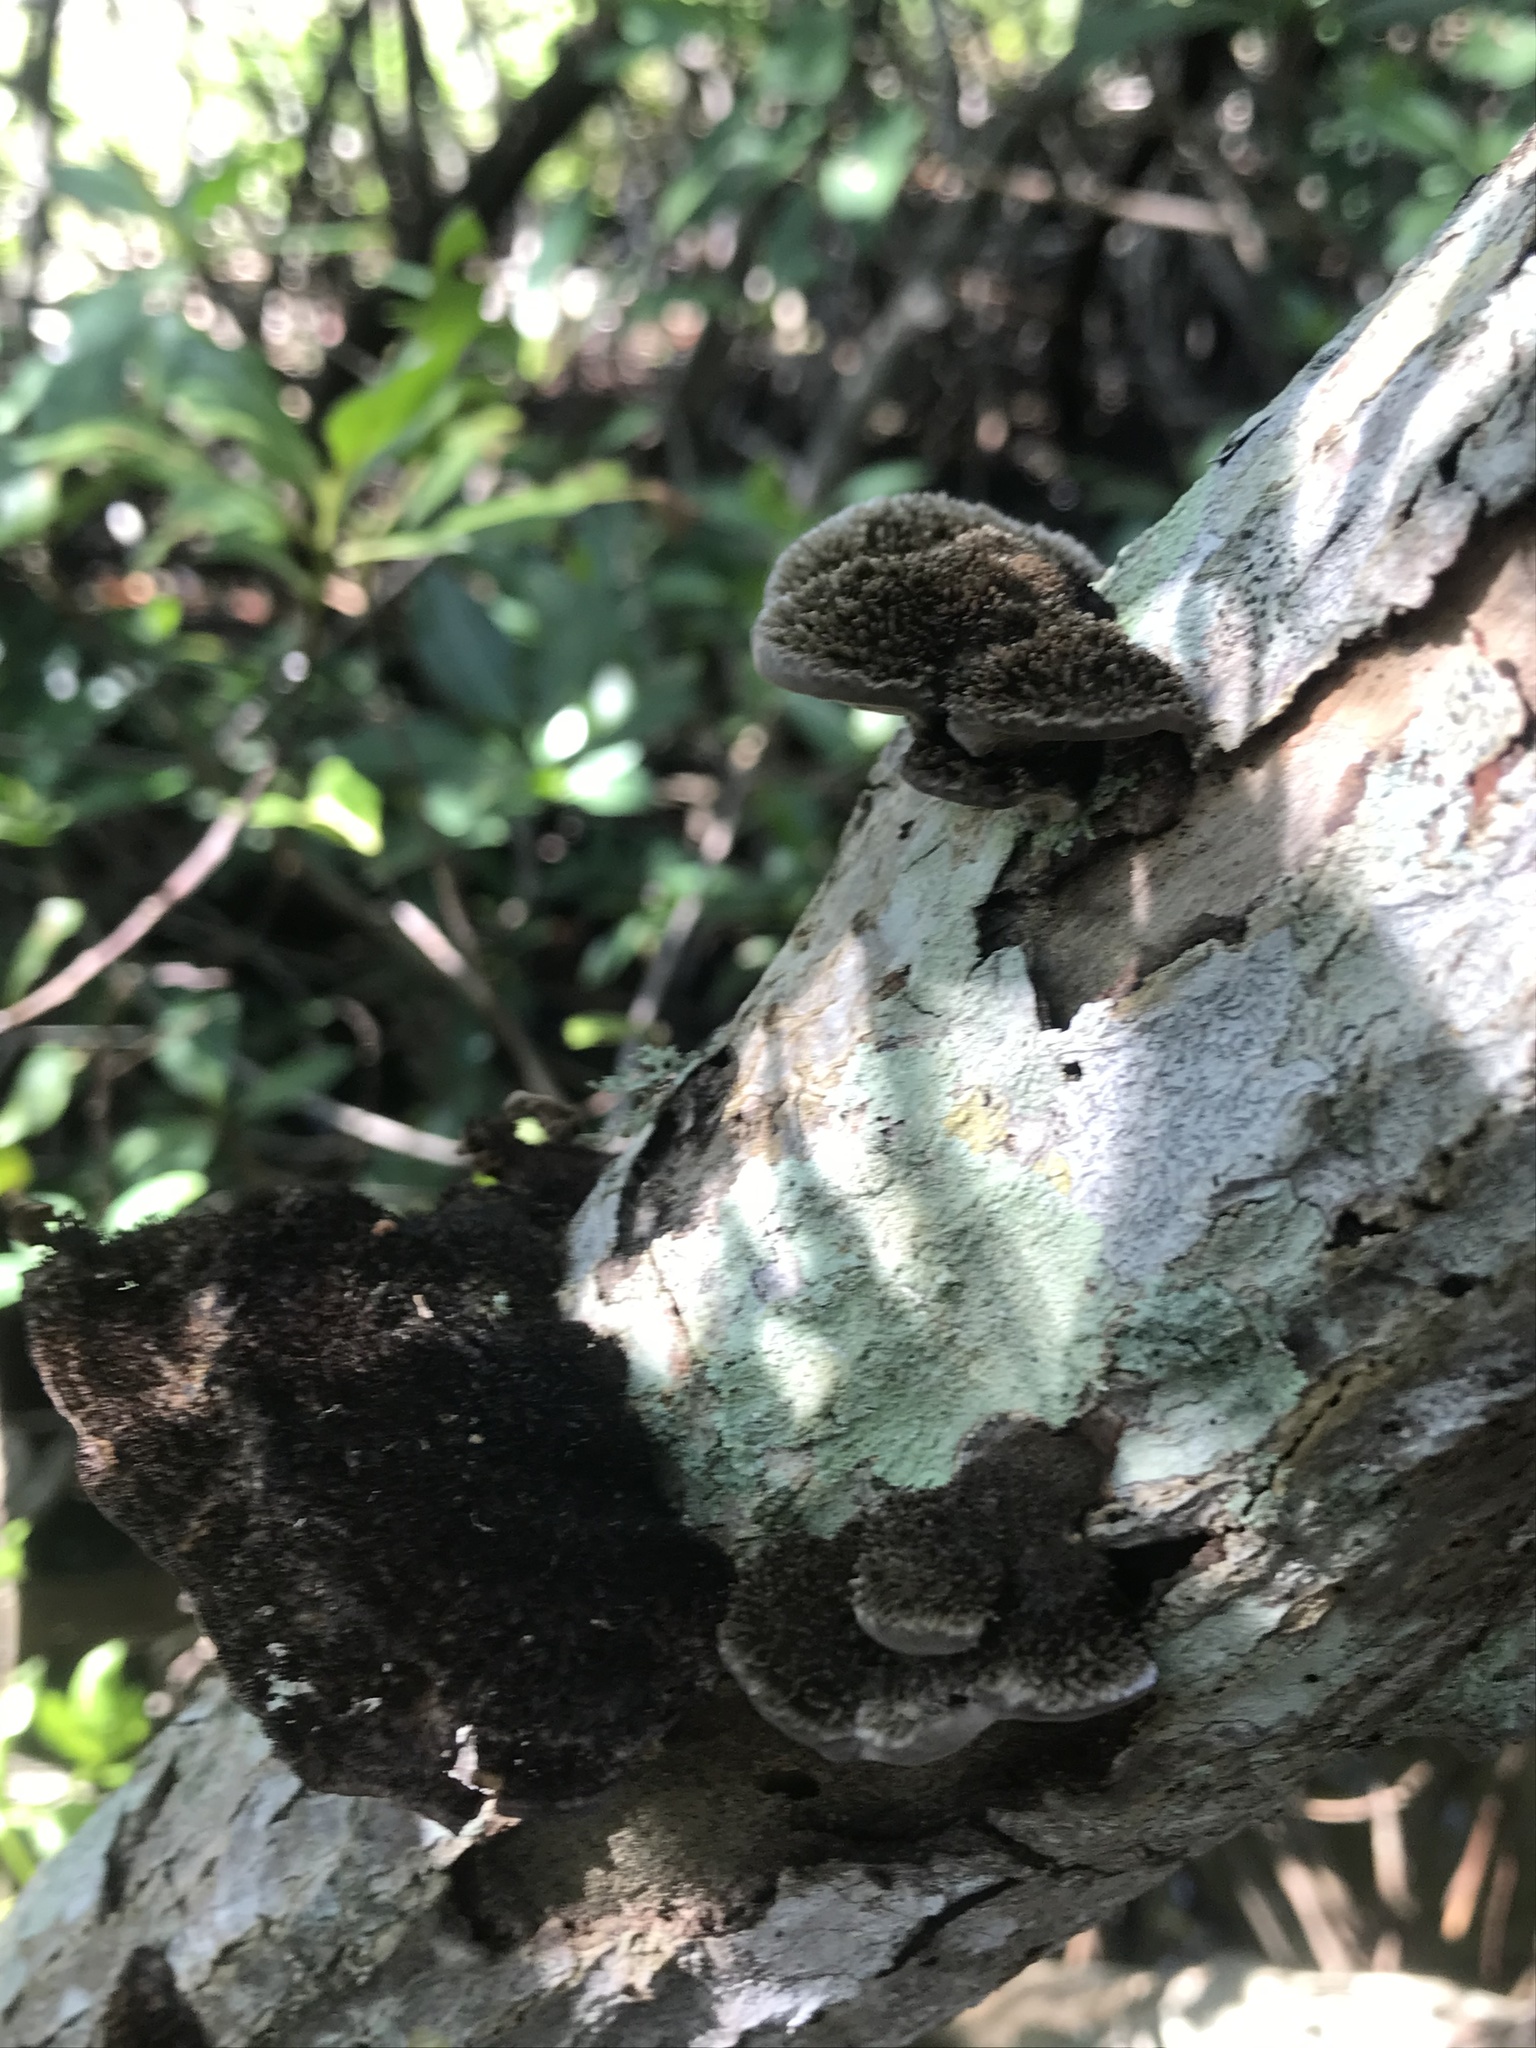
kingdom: Fungi
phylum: Basidiomycota
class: Agaricomycetes
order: Polyporales
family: Cerrenaceae
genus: Cerrena
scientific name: Cerrena hydnoides
